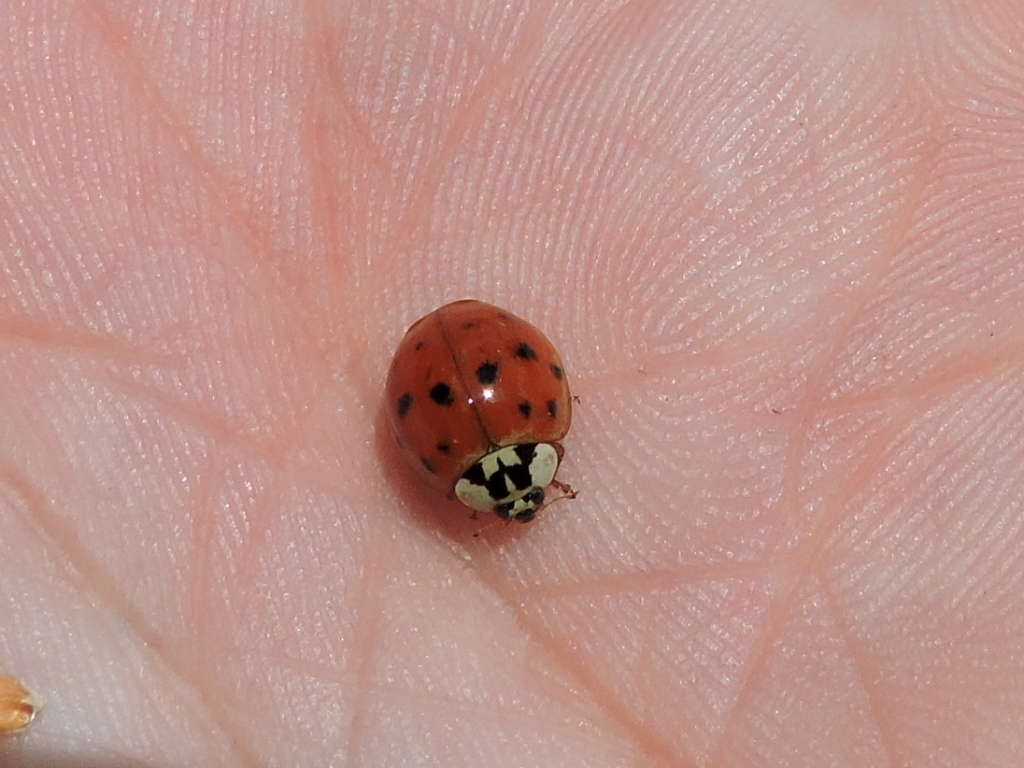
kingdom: Animalia
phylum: Arthropoda
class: Insecta
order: Coleoptera
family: Coccinellidae
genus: Harmonia
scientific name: Harmonia axyridis
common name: Harlequin ladybird
